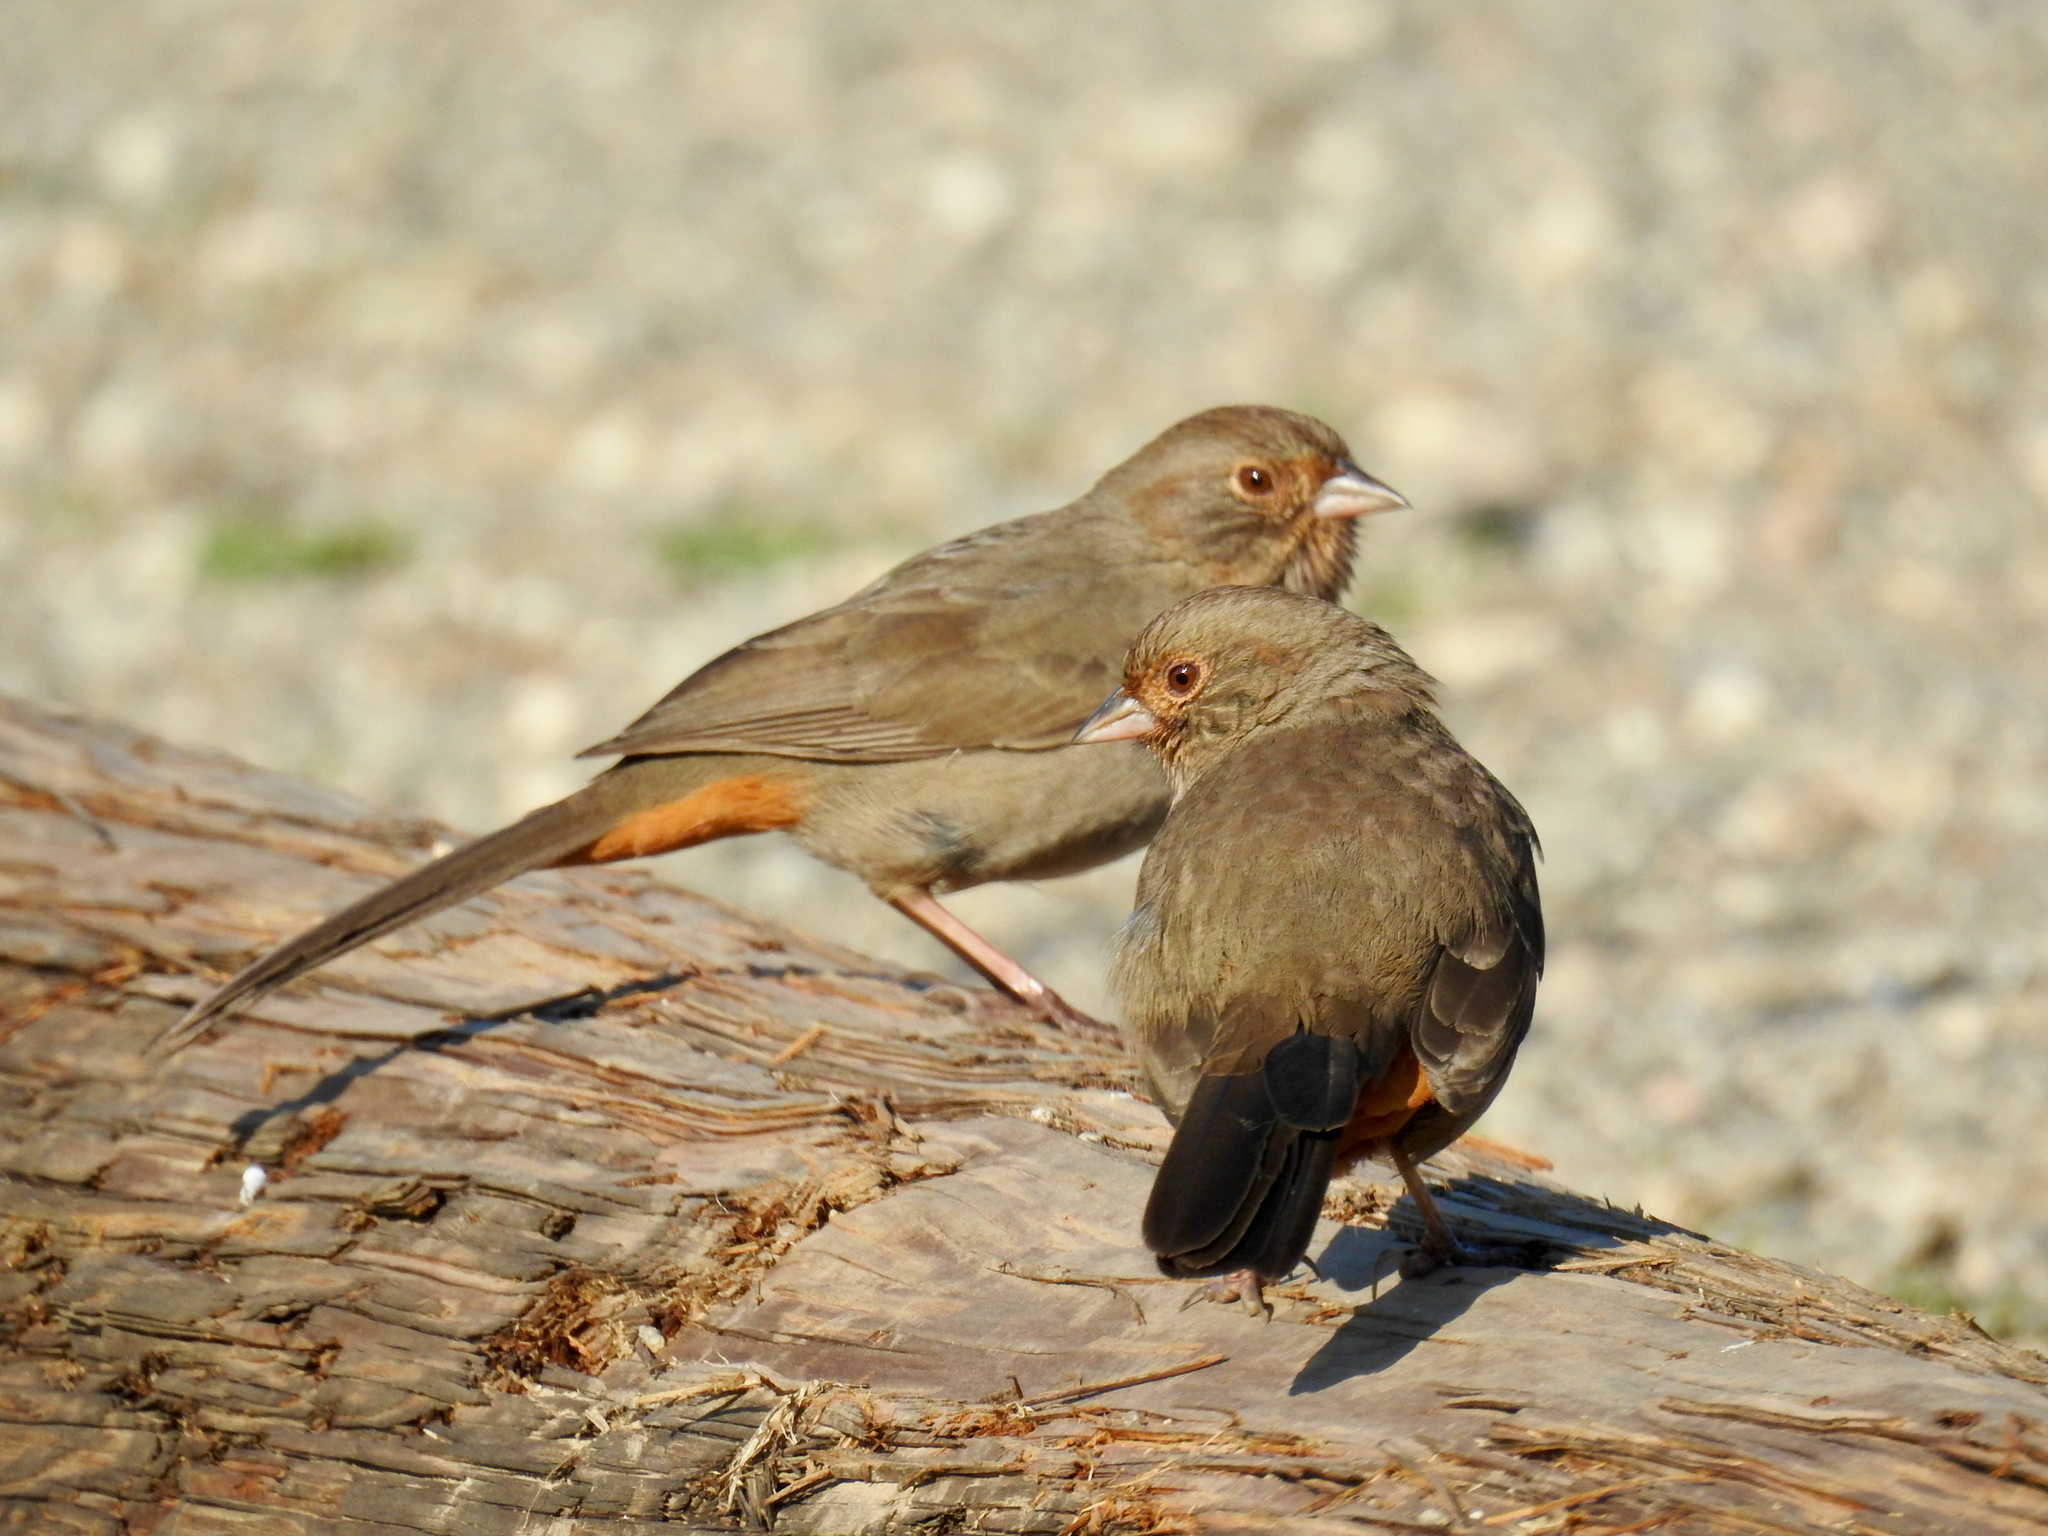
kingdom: Animalia
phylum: Chordata
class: Aves
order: Passeriformes
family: Passerellidae
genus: Melozone
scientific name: Melozone crissalis
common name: California towhee
